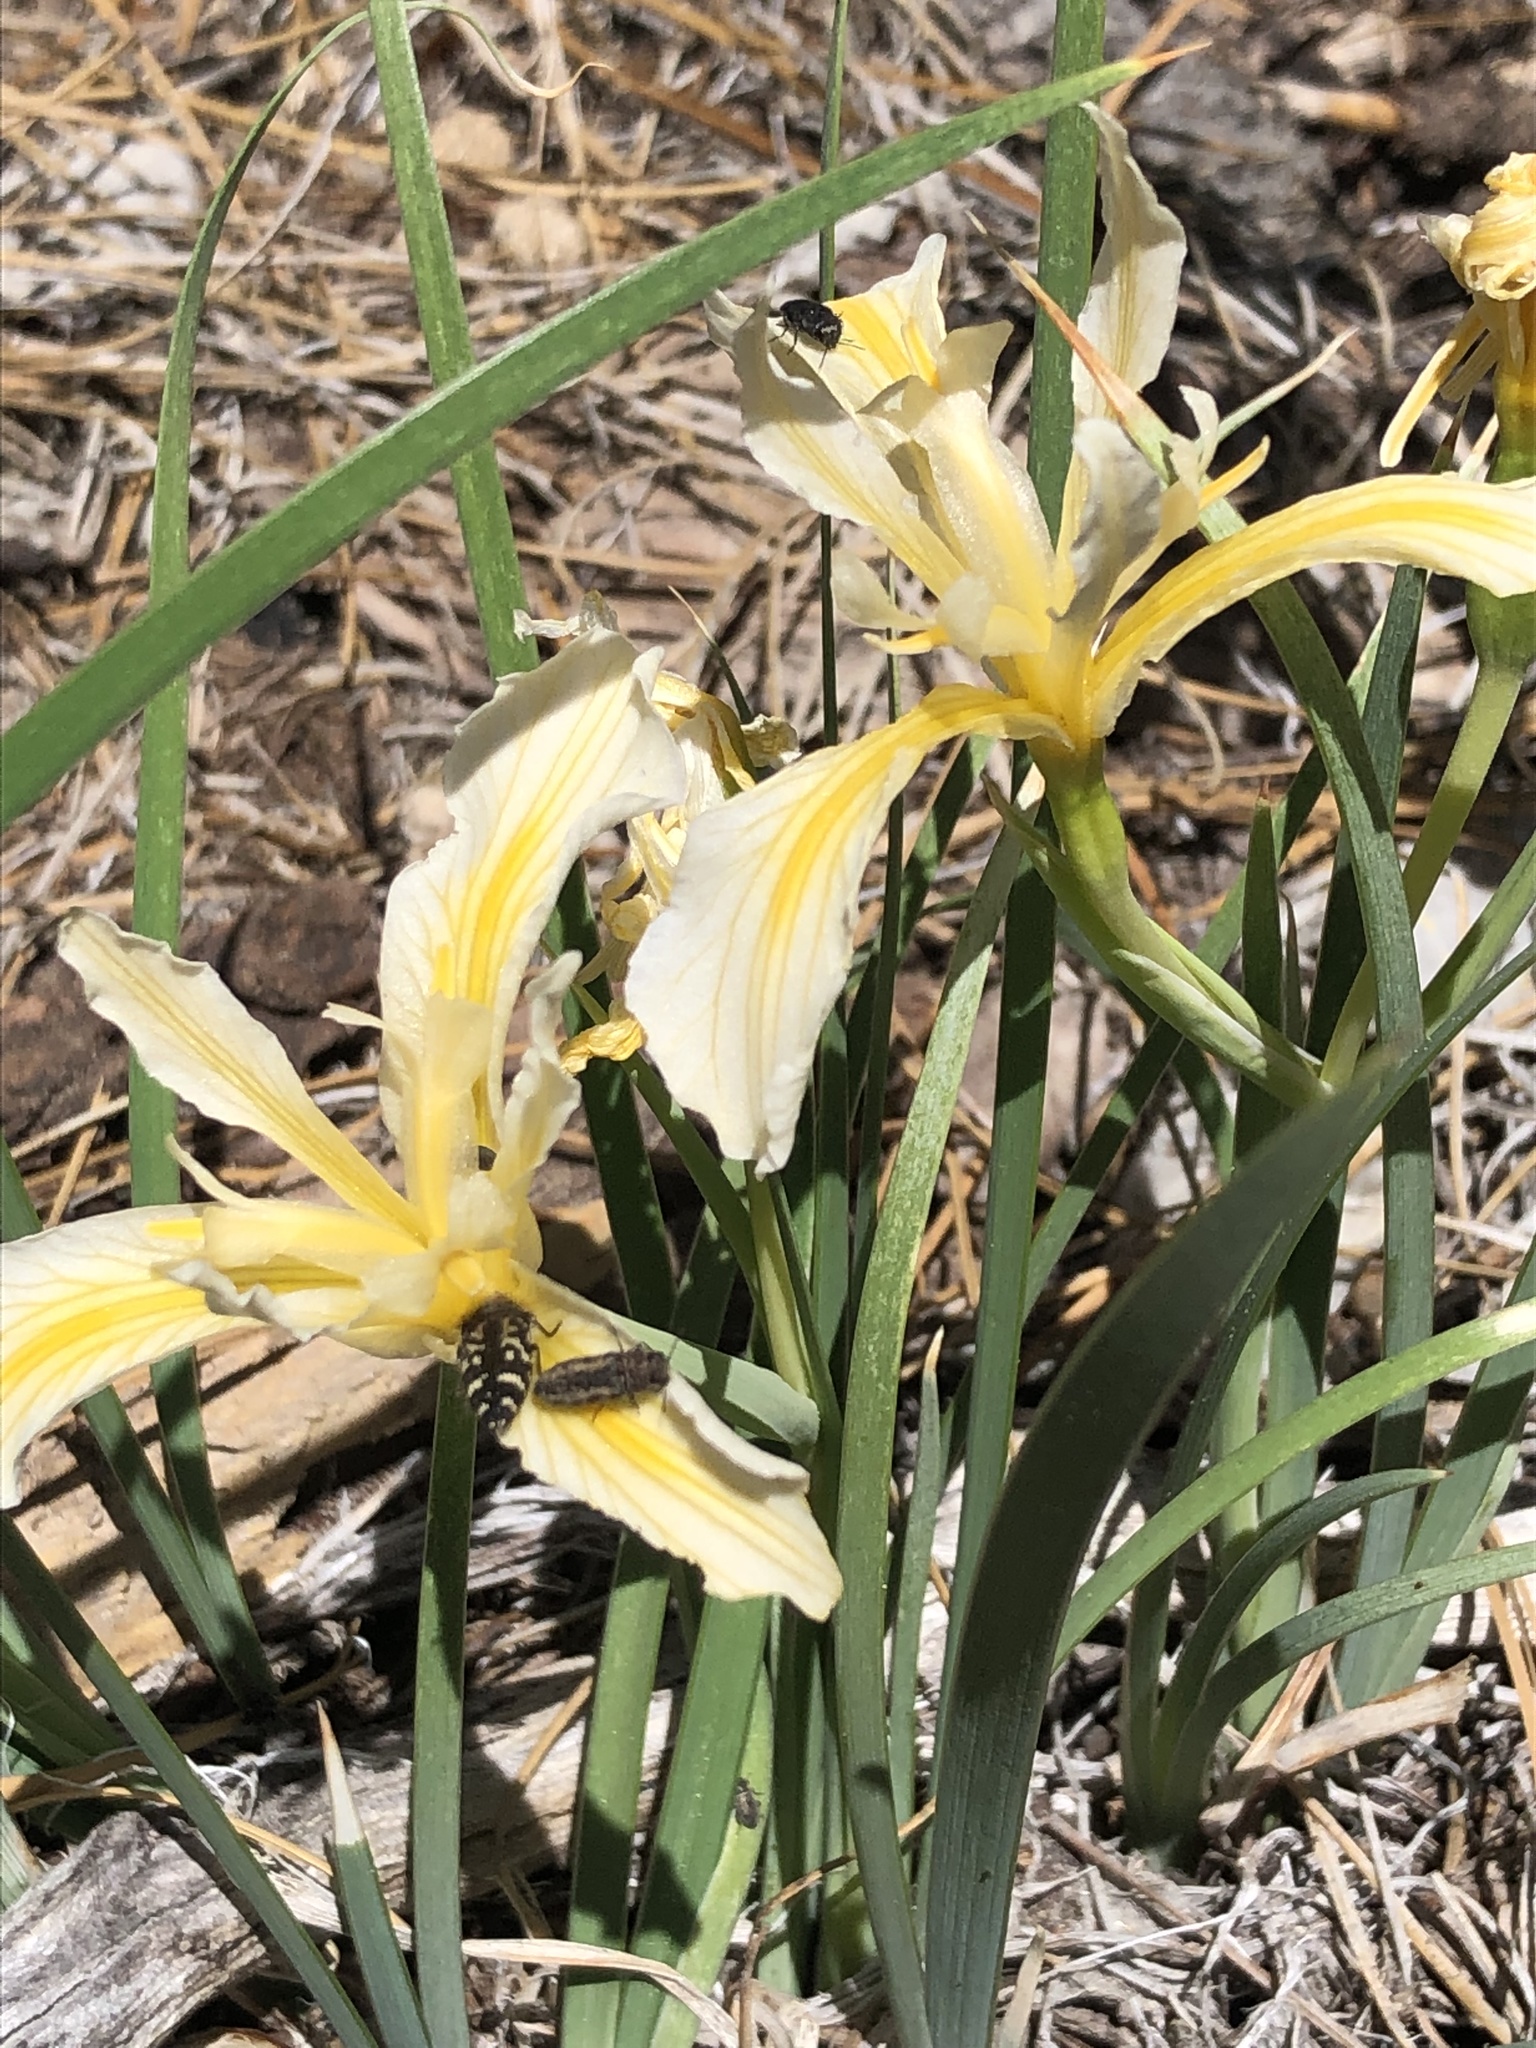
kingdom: Plantae
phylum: Tracheophyta
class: Liliopsida
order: Asparagales
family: Iridaceae
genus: Iris
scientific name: Iris hartwegii
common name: Sierra iris
